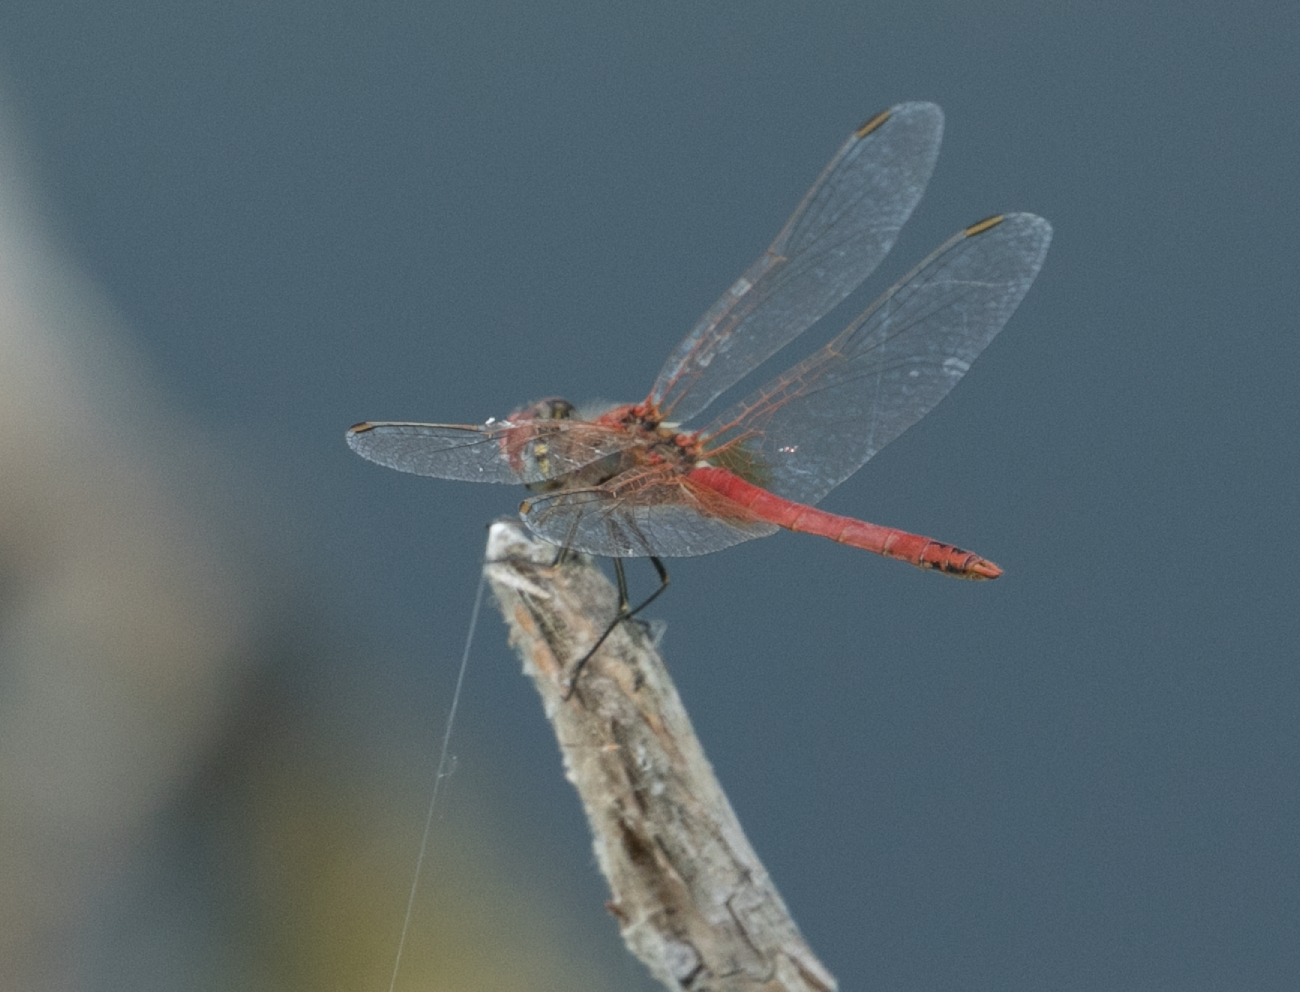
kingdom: Animalia
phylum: Arthropoda
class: Insecta
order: Odonata
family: Libellulidae
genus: Sympetrum
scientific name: Sympetrum fonscolombii
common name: Red-veined darter
